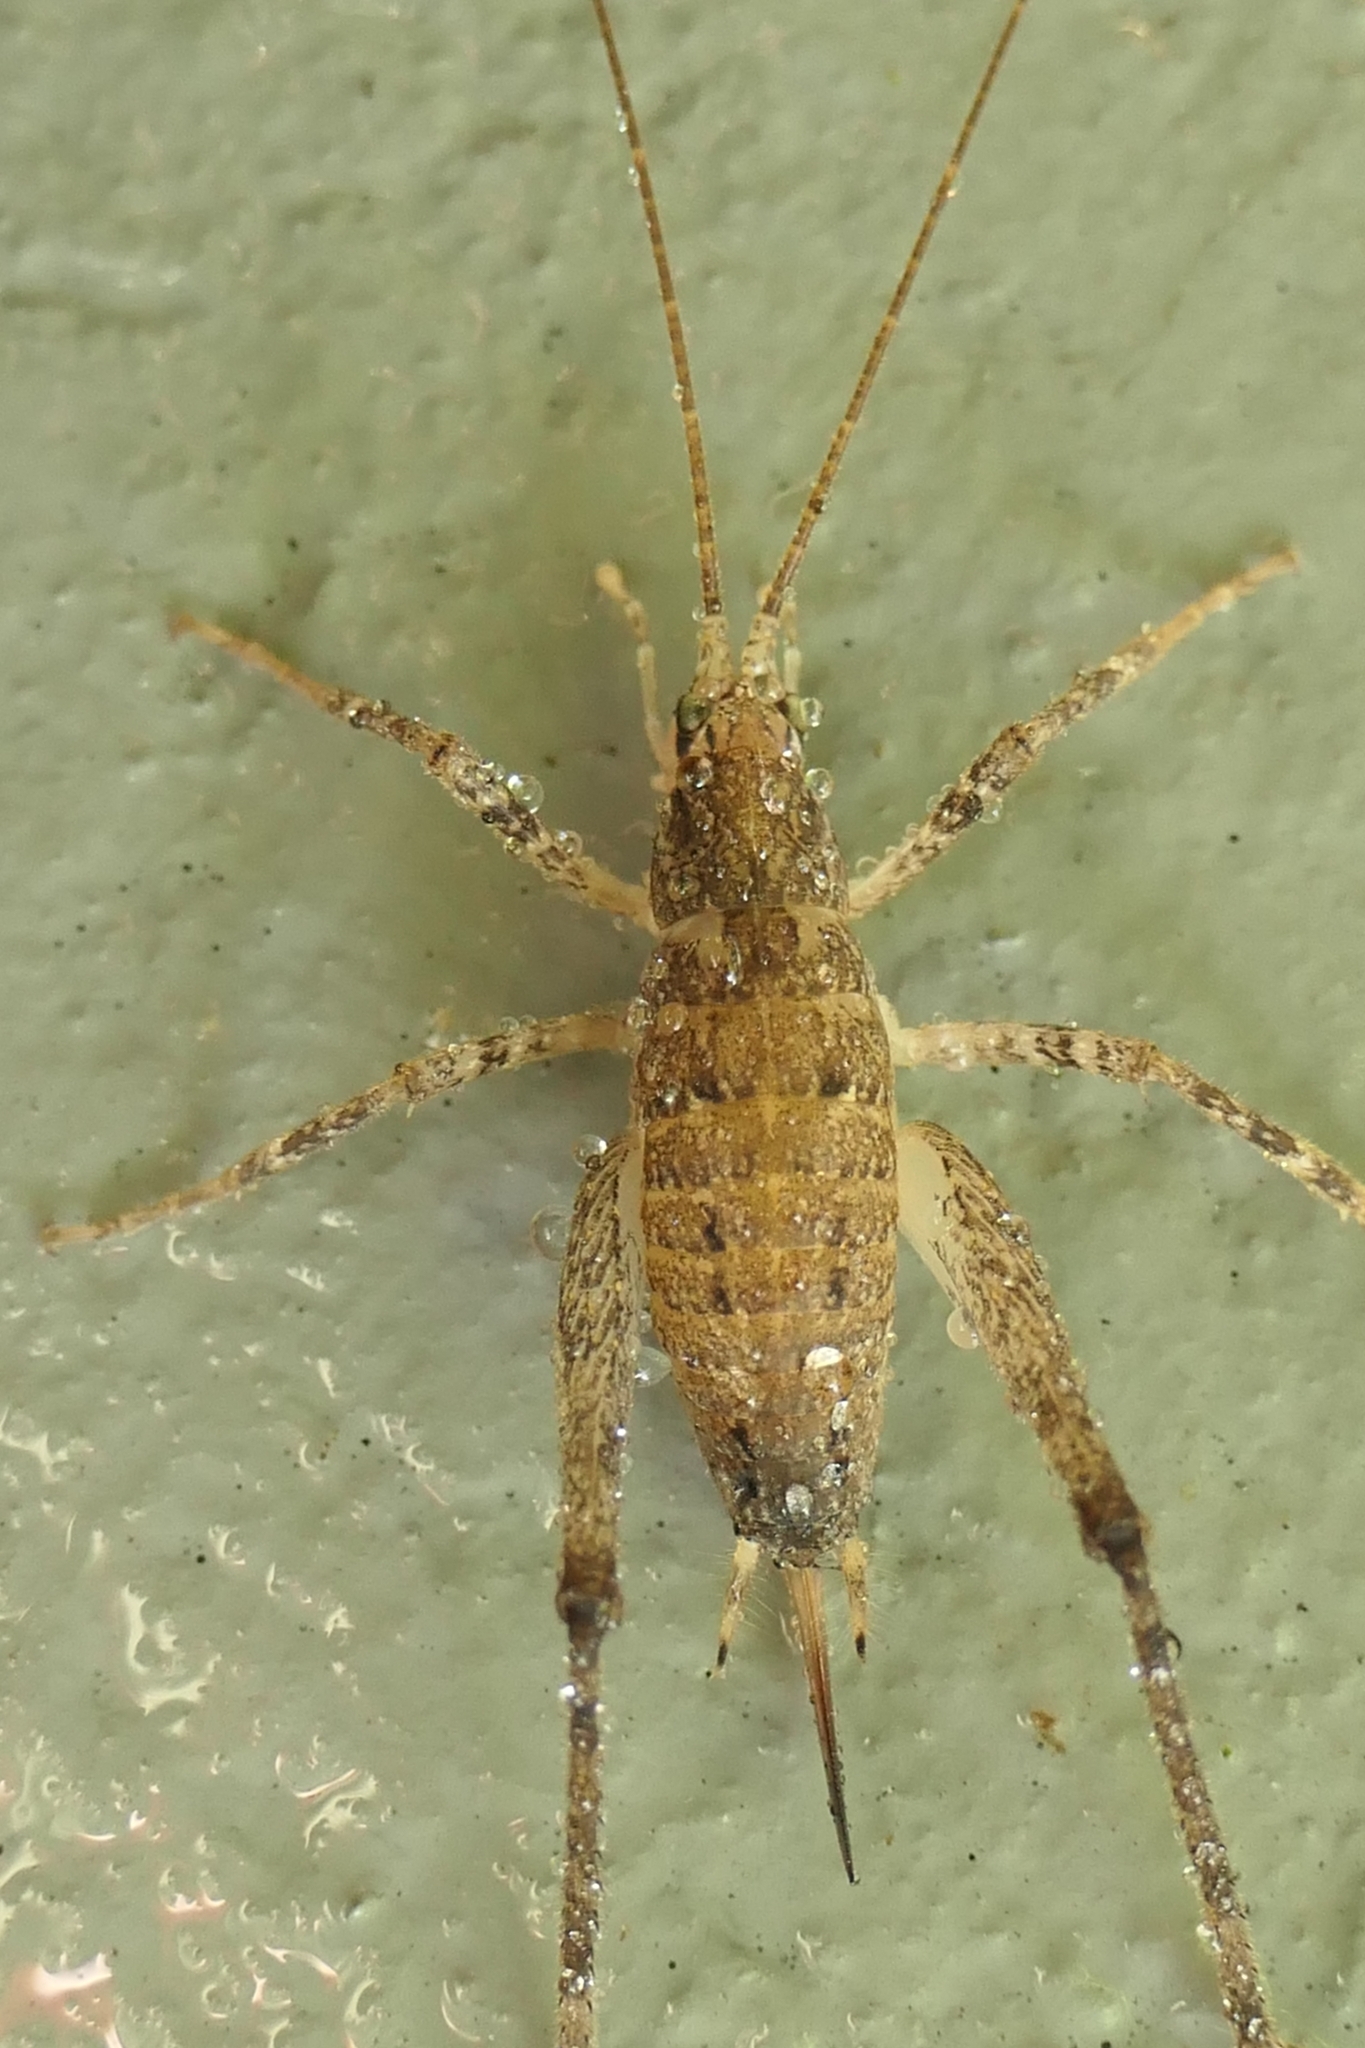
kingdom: Animalia
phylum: Arthropoda
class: Insecta
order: Orthoptera
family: Rhaphidophoridae
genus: Isoplectron
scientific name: Isoplectron armatum
